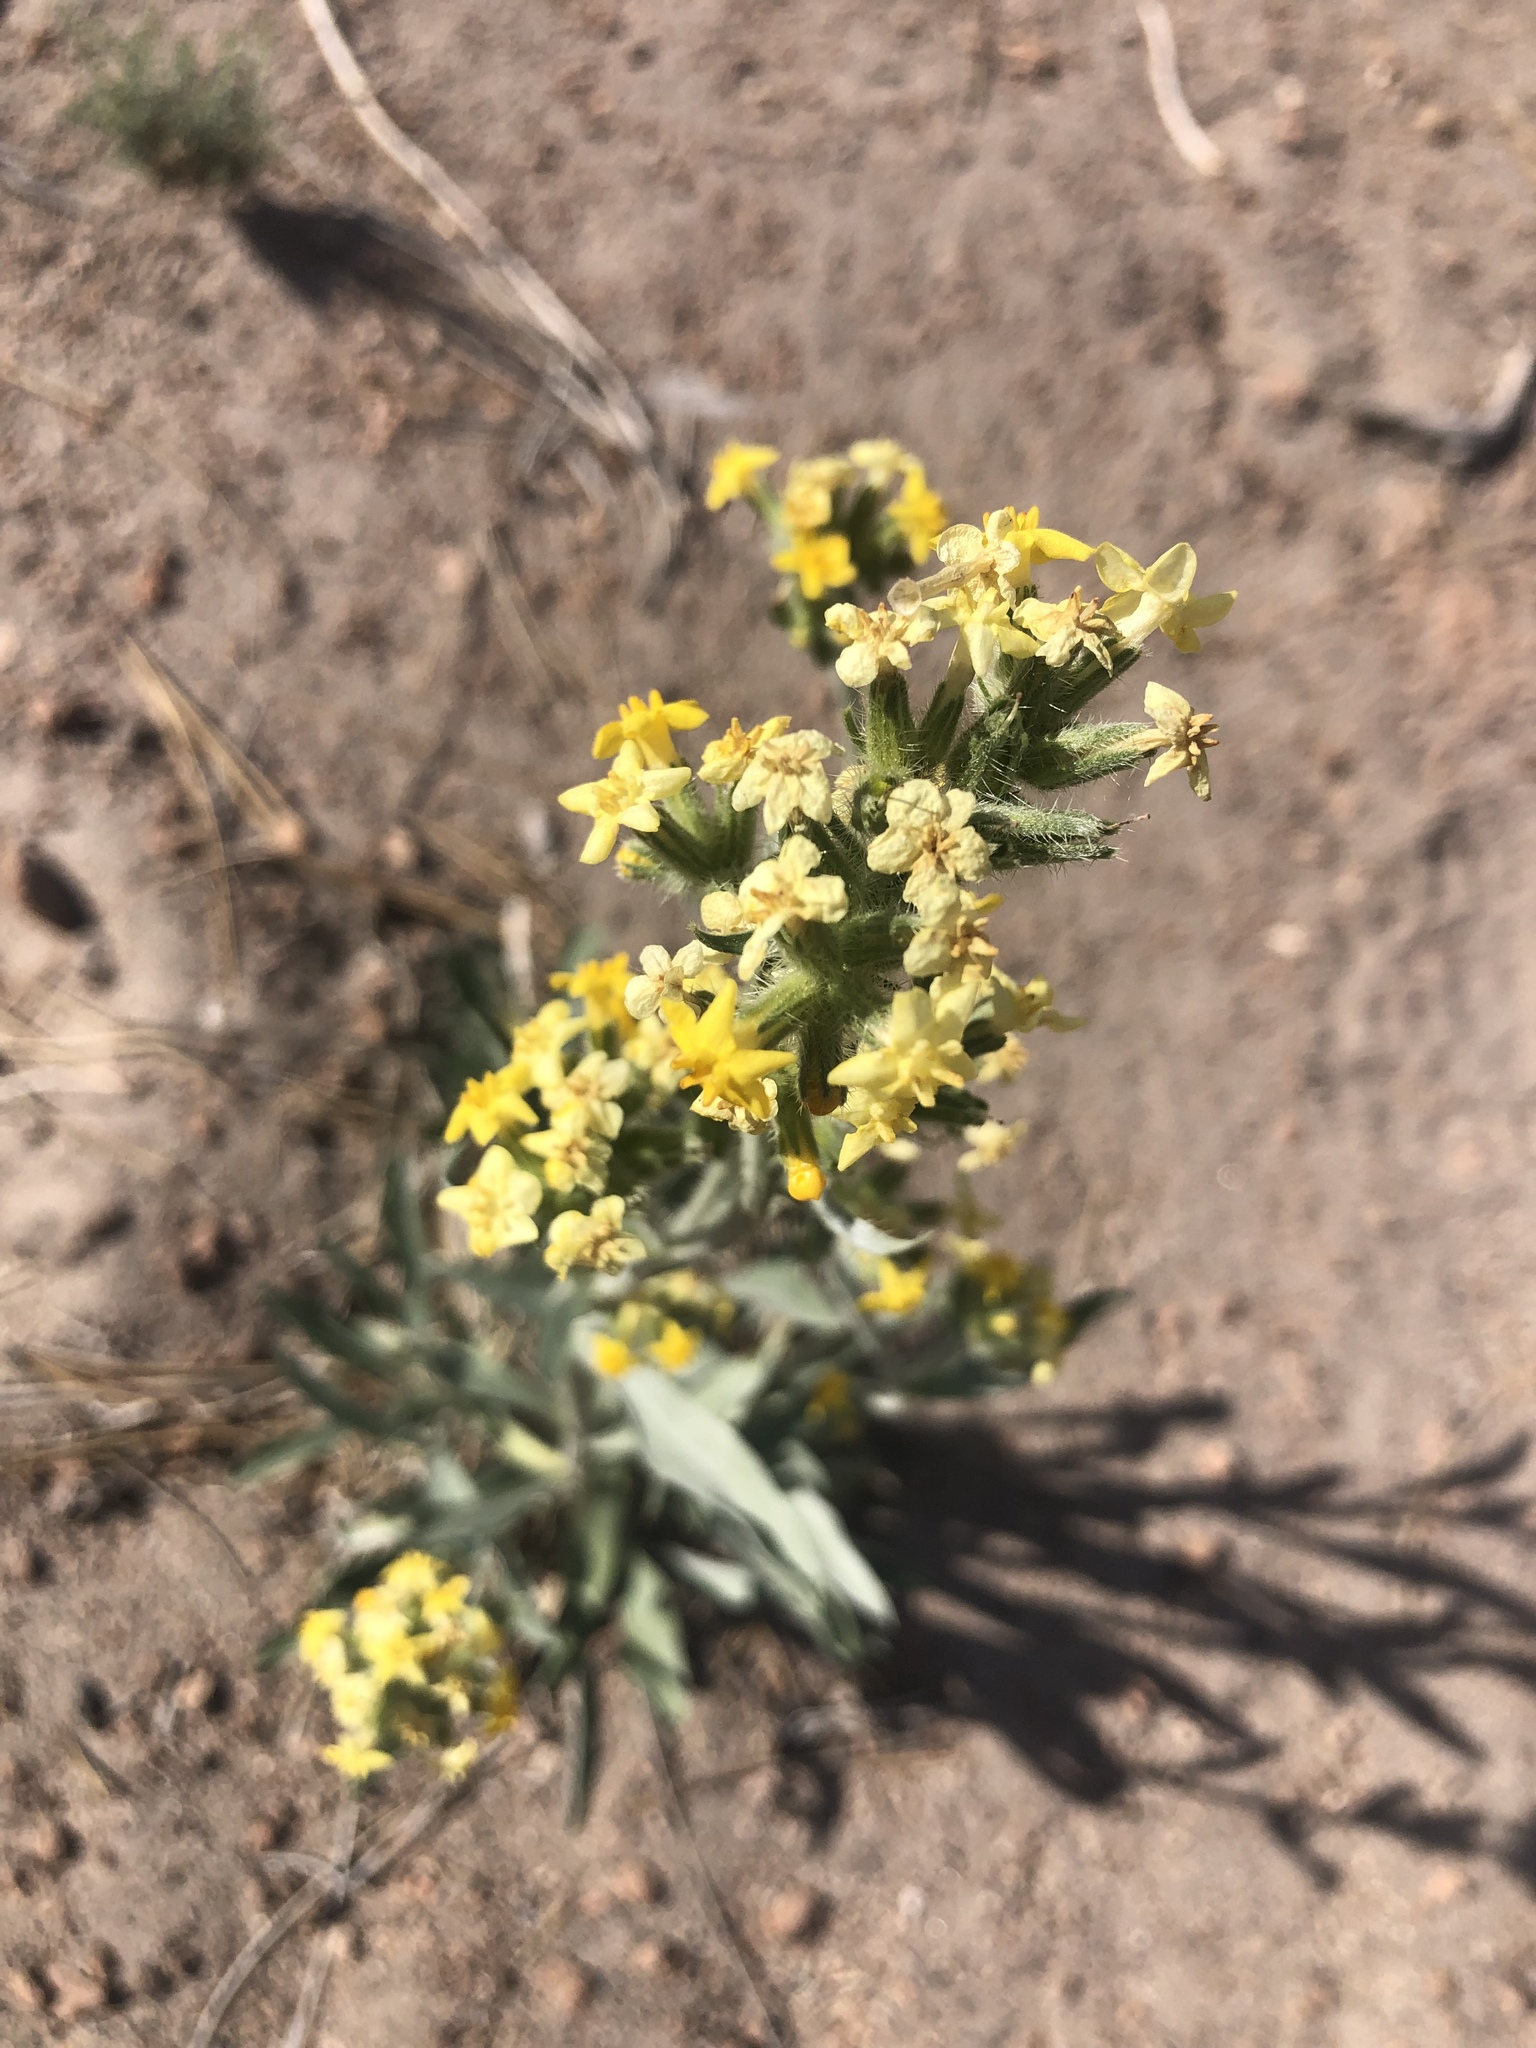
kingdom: Plantae
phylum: Tracheophyta
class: Magnoliopsida
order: Boraginales
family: Boraginaceae
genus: Oreocarya
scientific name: Oreocarya confertiflora
